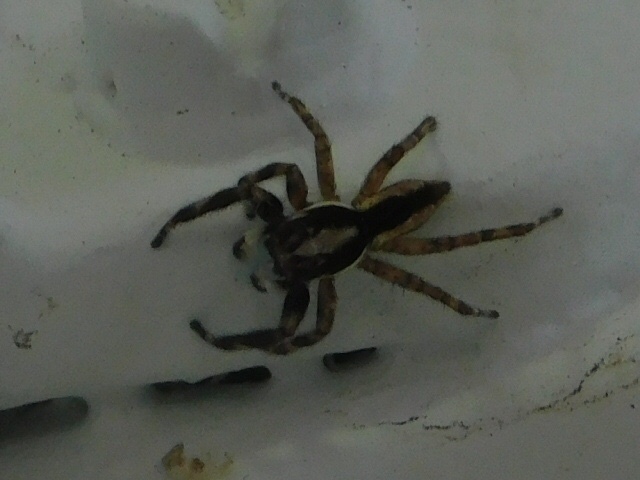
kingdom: Animalia
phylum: Arthropoda
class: Arachnida
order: Araneae
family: Salticidae
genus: Menemerus
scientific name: Menemerus bivittatus
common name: Gray wall jumper
